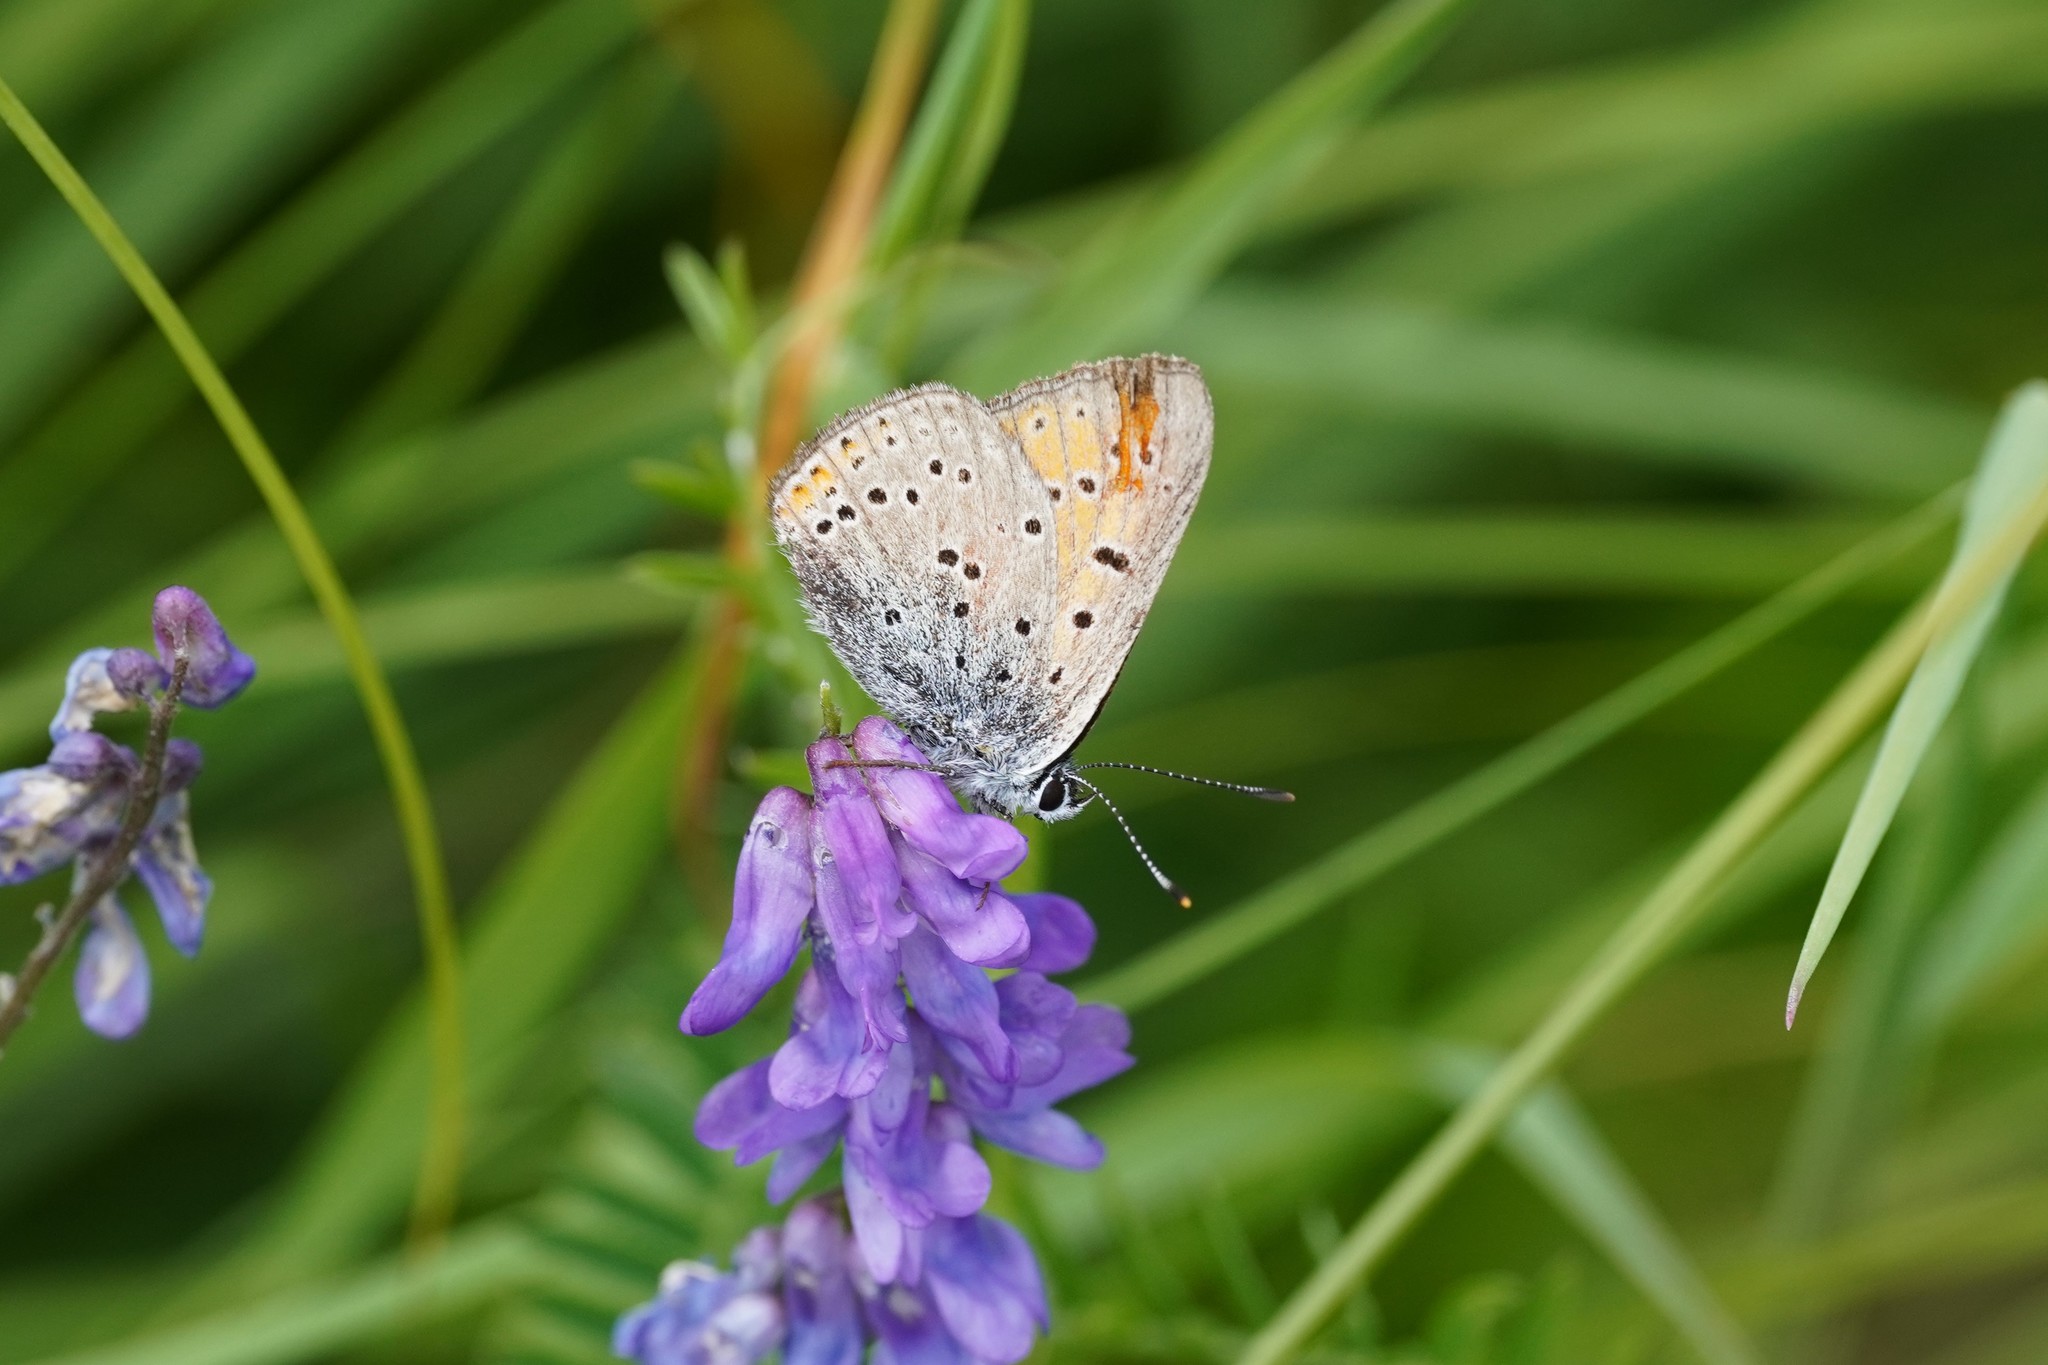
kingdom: Animalia
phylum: Arthropoda
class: Insecta
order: Lepidoptera
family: Lycaenidae
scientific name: Lycaenidae
